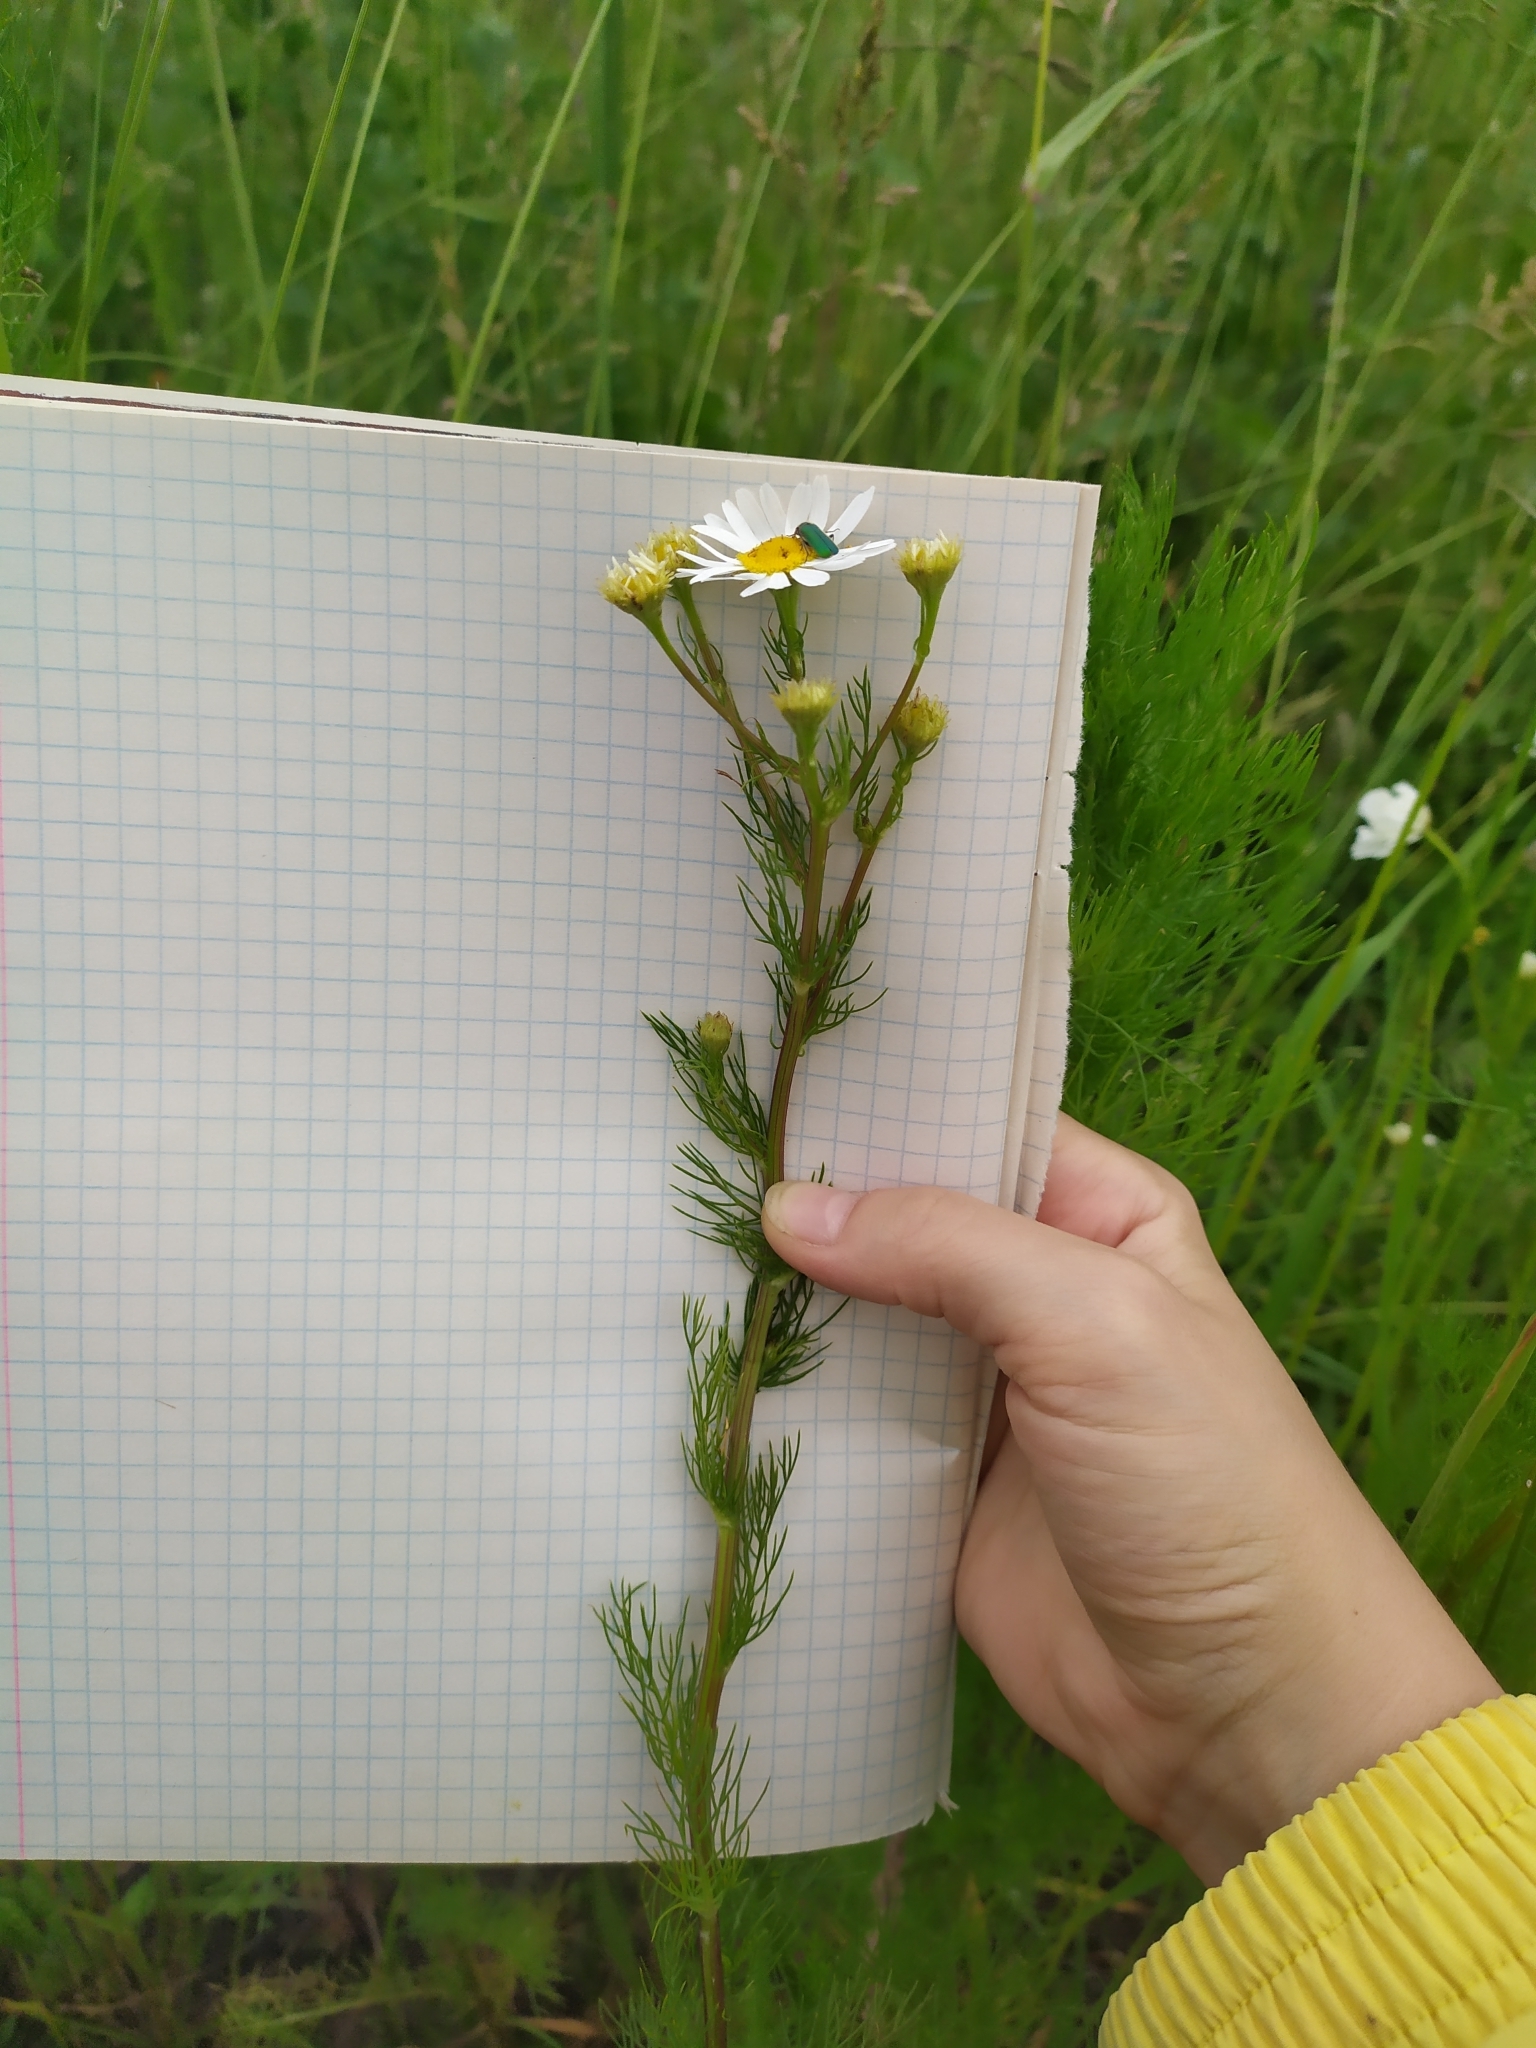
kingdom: Plantae
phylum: Tracheophyta
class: Magnoliopsida
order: Asterales
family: Asteraceae
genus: Tripleurospermum
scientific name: Tripleurospermum inodorum
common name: Scentless mayweed
